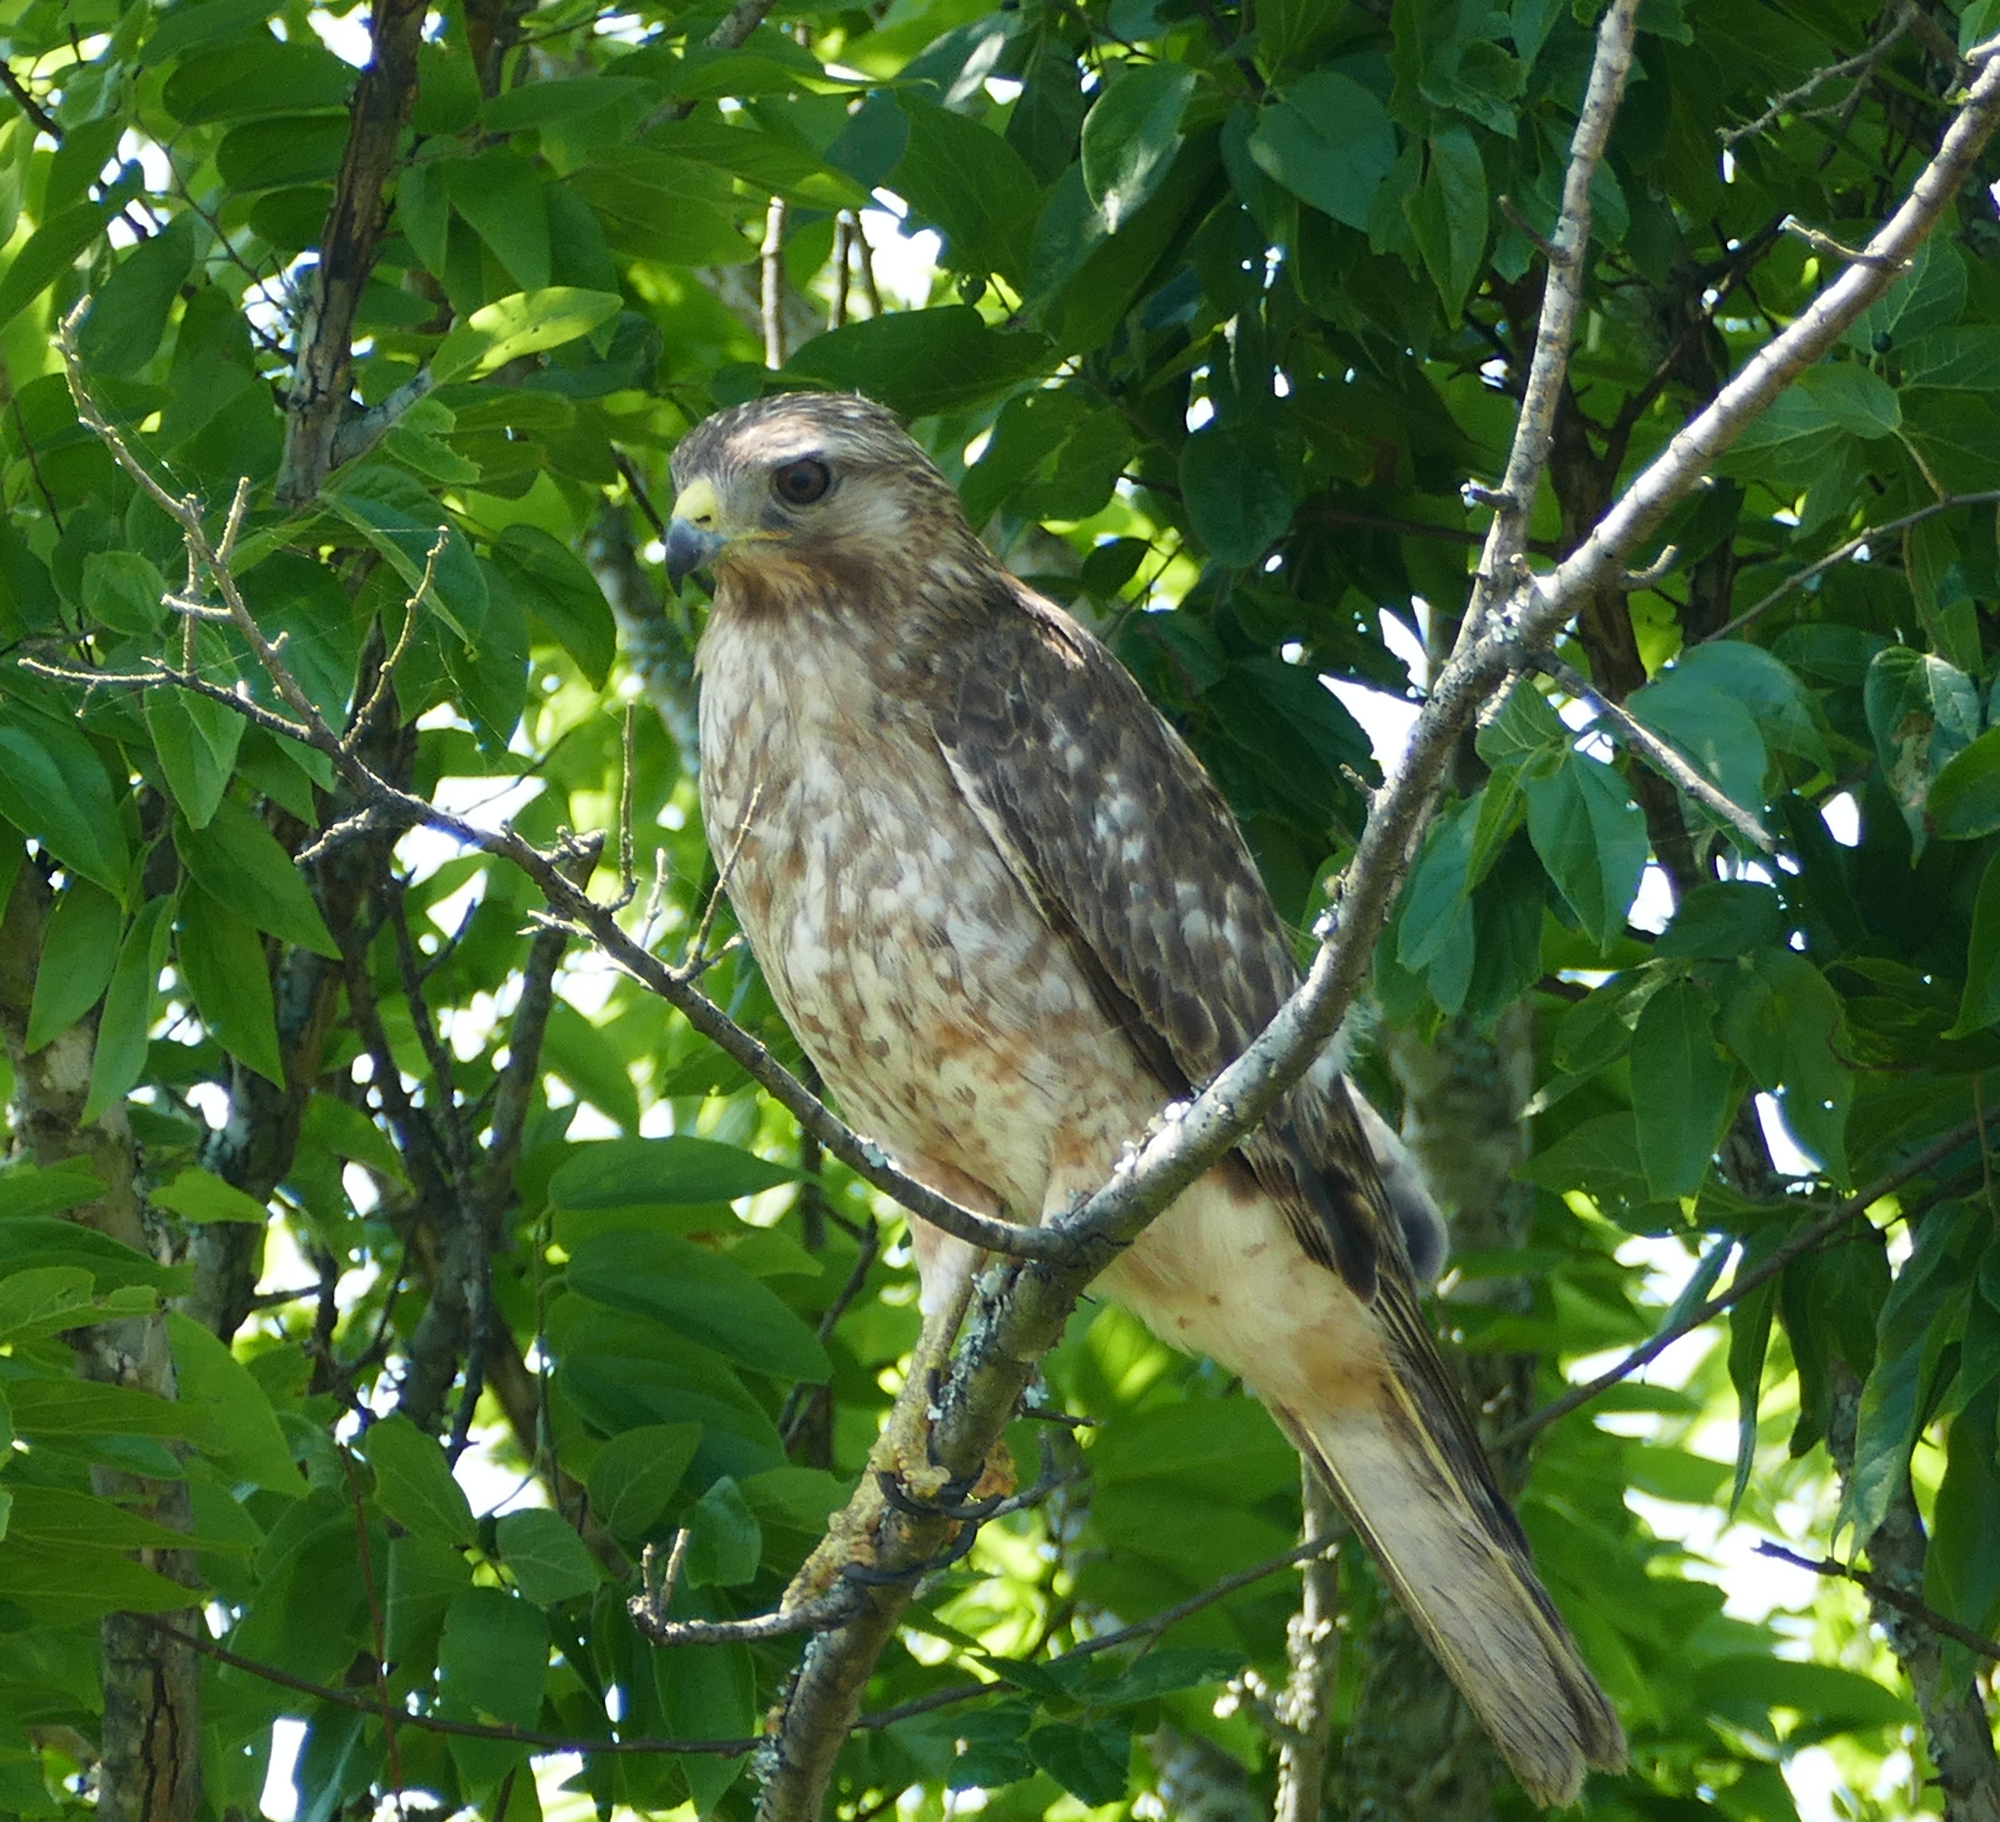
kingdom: Animalia
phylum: Chordata
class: Aves
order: Accipitriformes
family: Accipitridae
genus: Buteo
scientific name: Buteo lineatus
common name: Red-shouldered hawk
